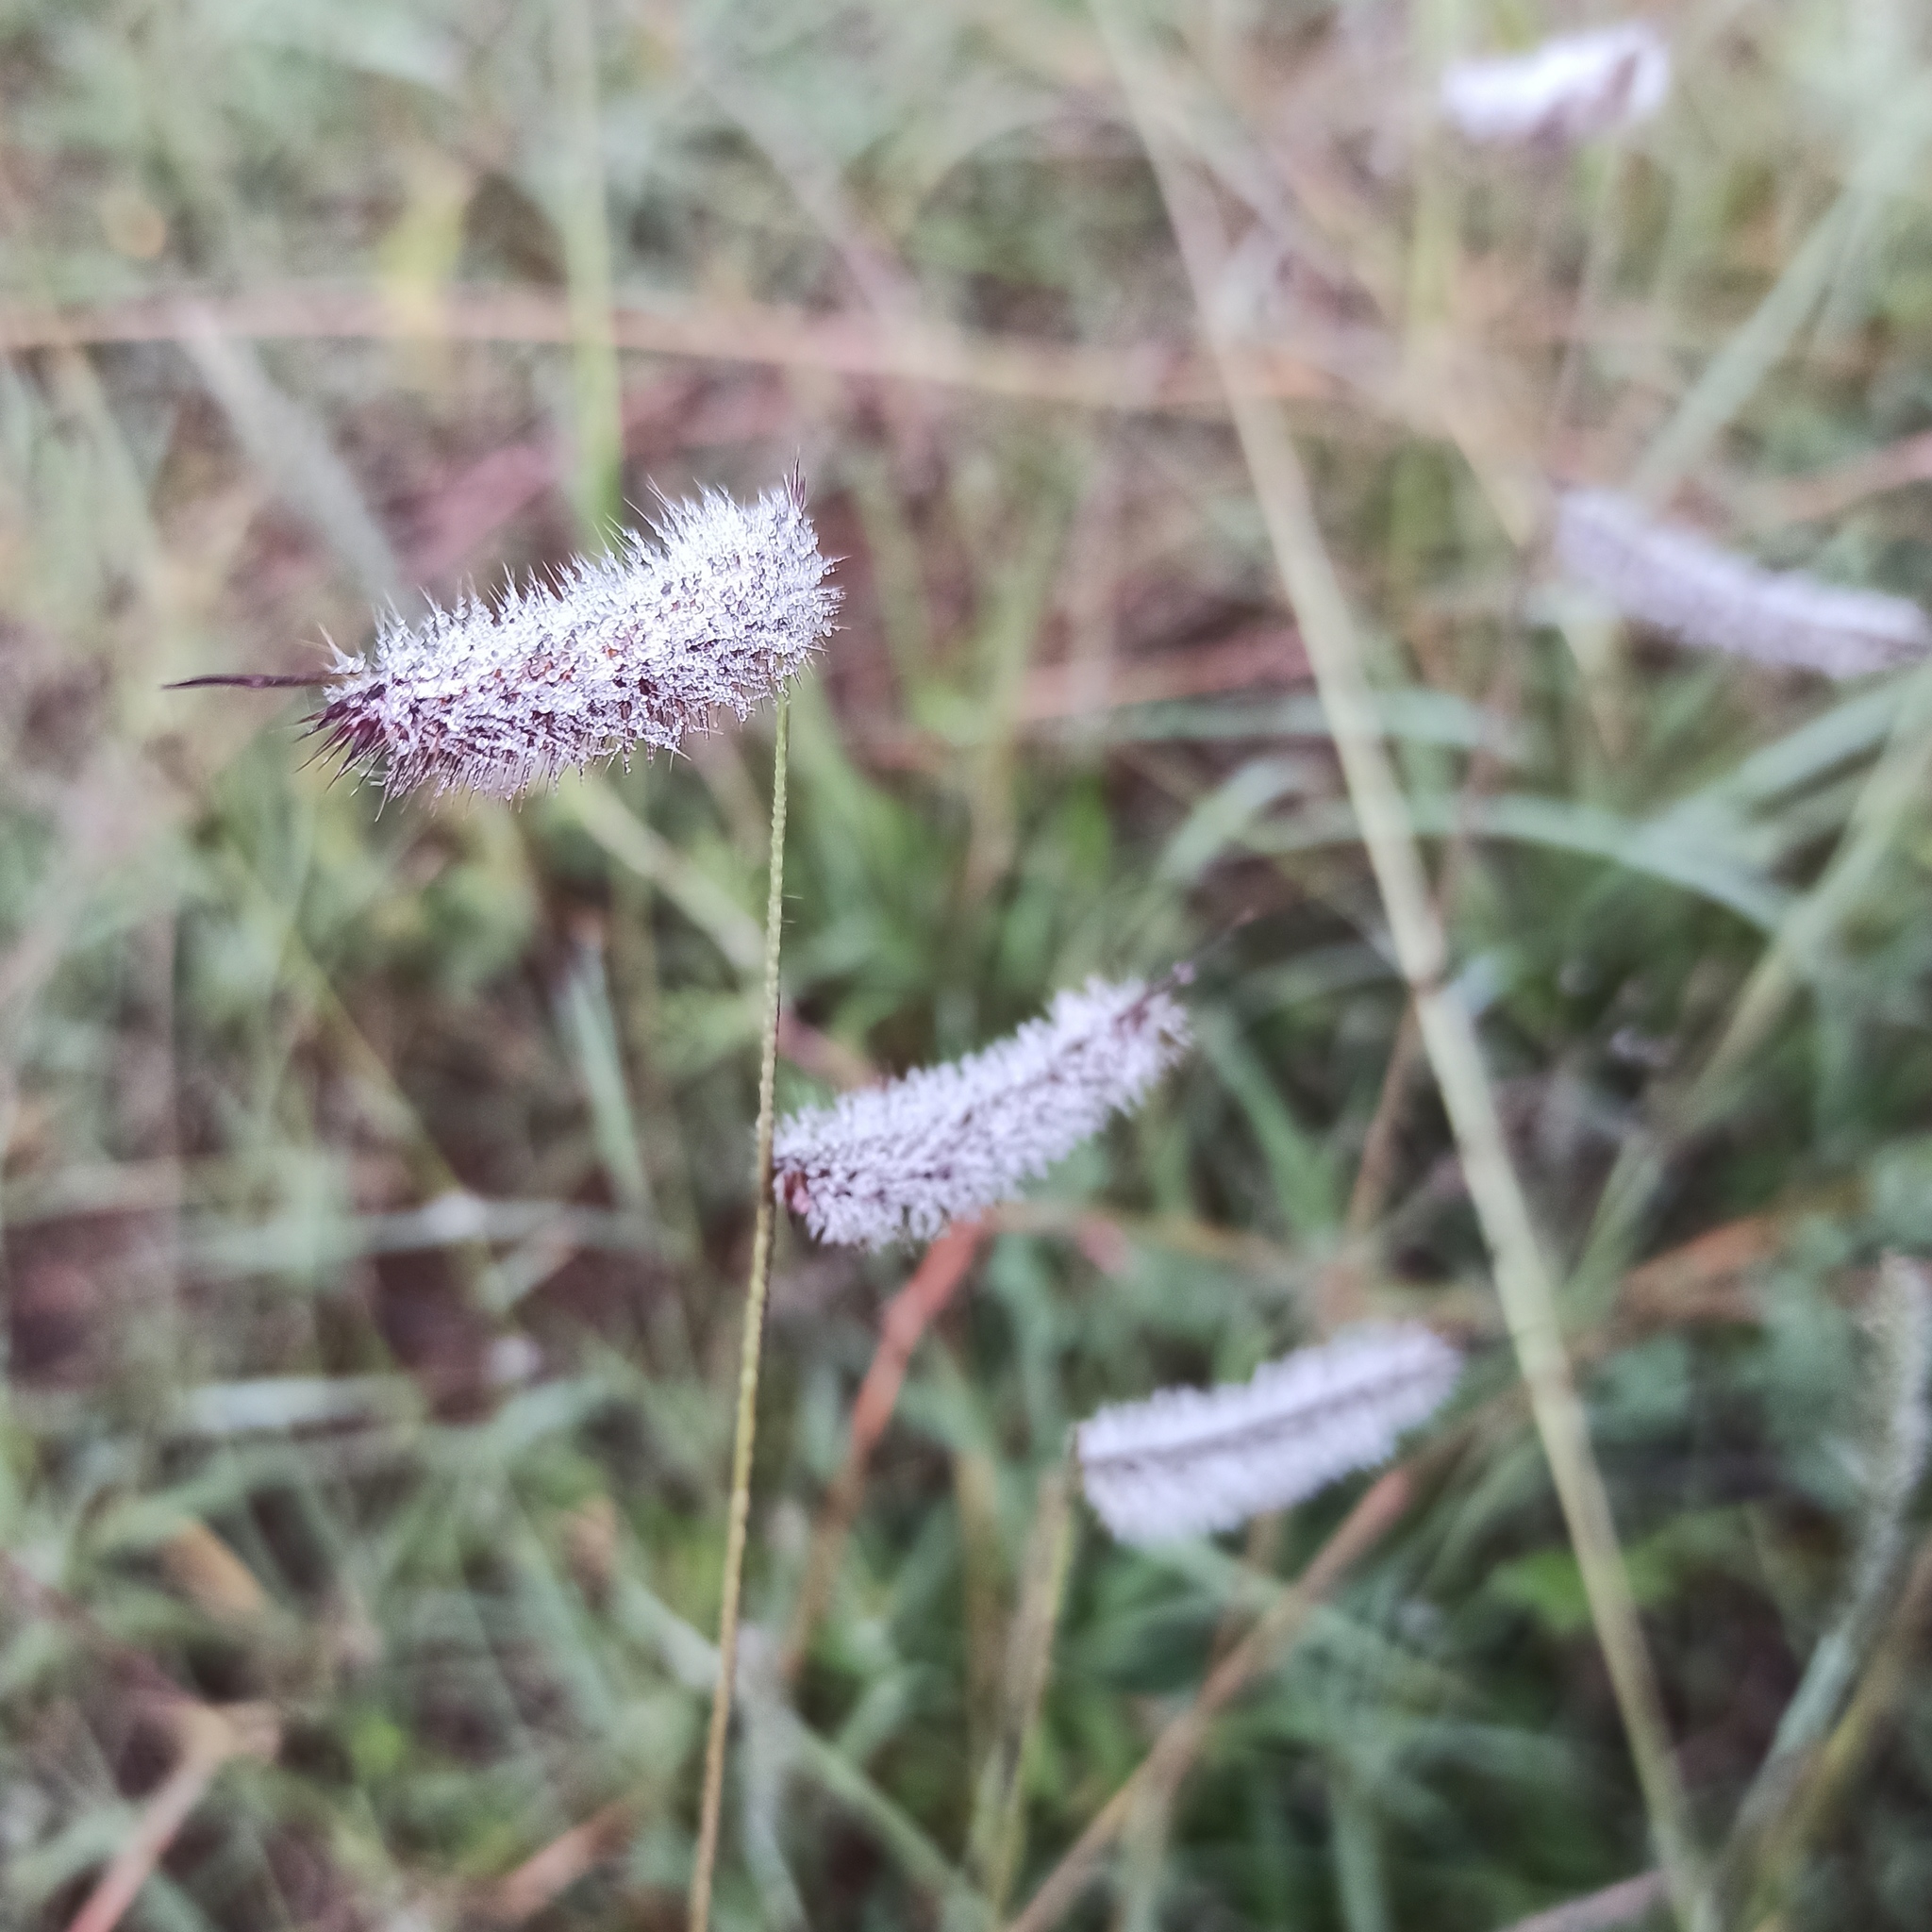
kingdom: Plantae
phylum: Tracheophyta
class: Liliopsida
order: Poales
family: Poaceae
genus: Bouteloua
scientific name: Bouteloua hirsuta
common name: Hairy grama
